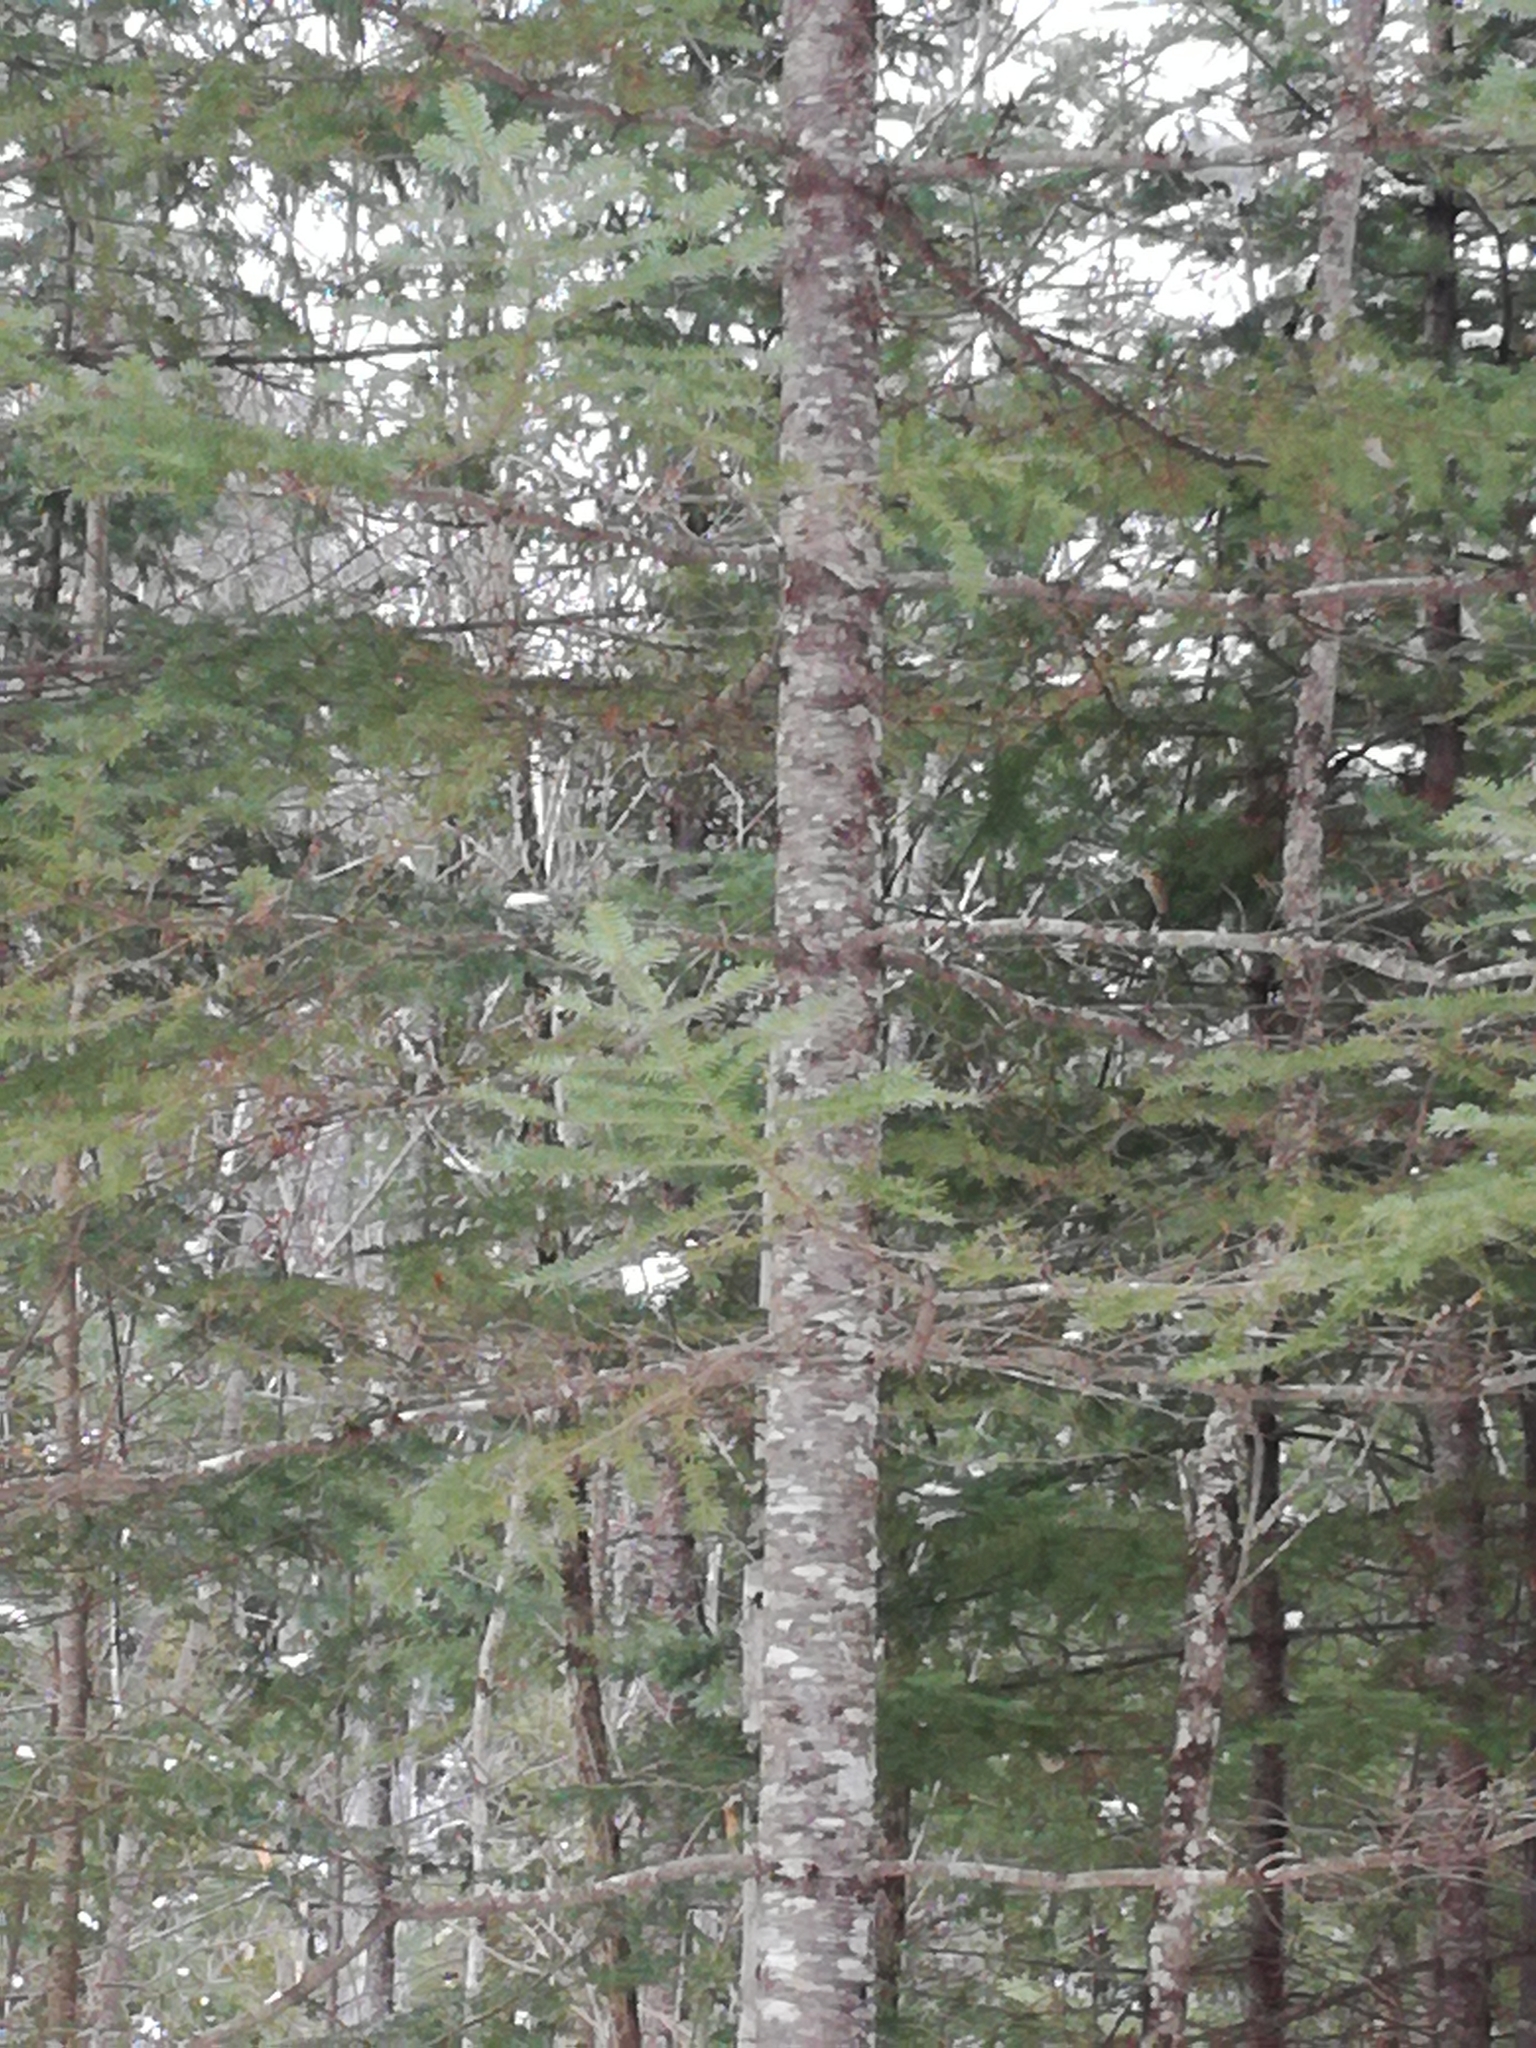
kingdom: Plantae
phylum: Tracheophyta
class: Pinopsida
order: Pinales
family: Pinaceae
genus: Abies
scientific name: Abies balsamea
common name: Balsam fir
